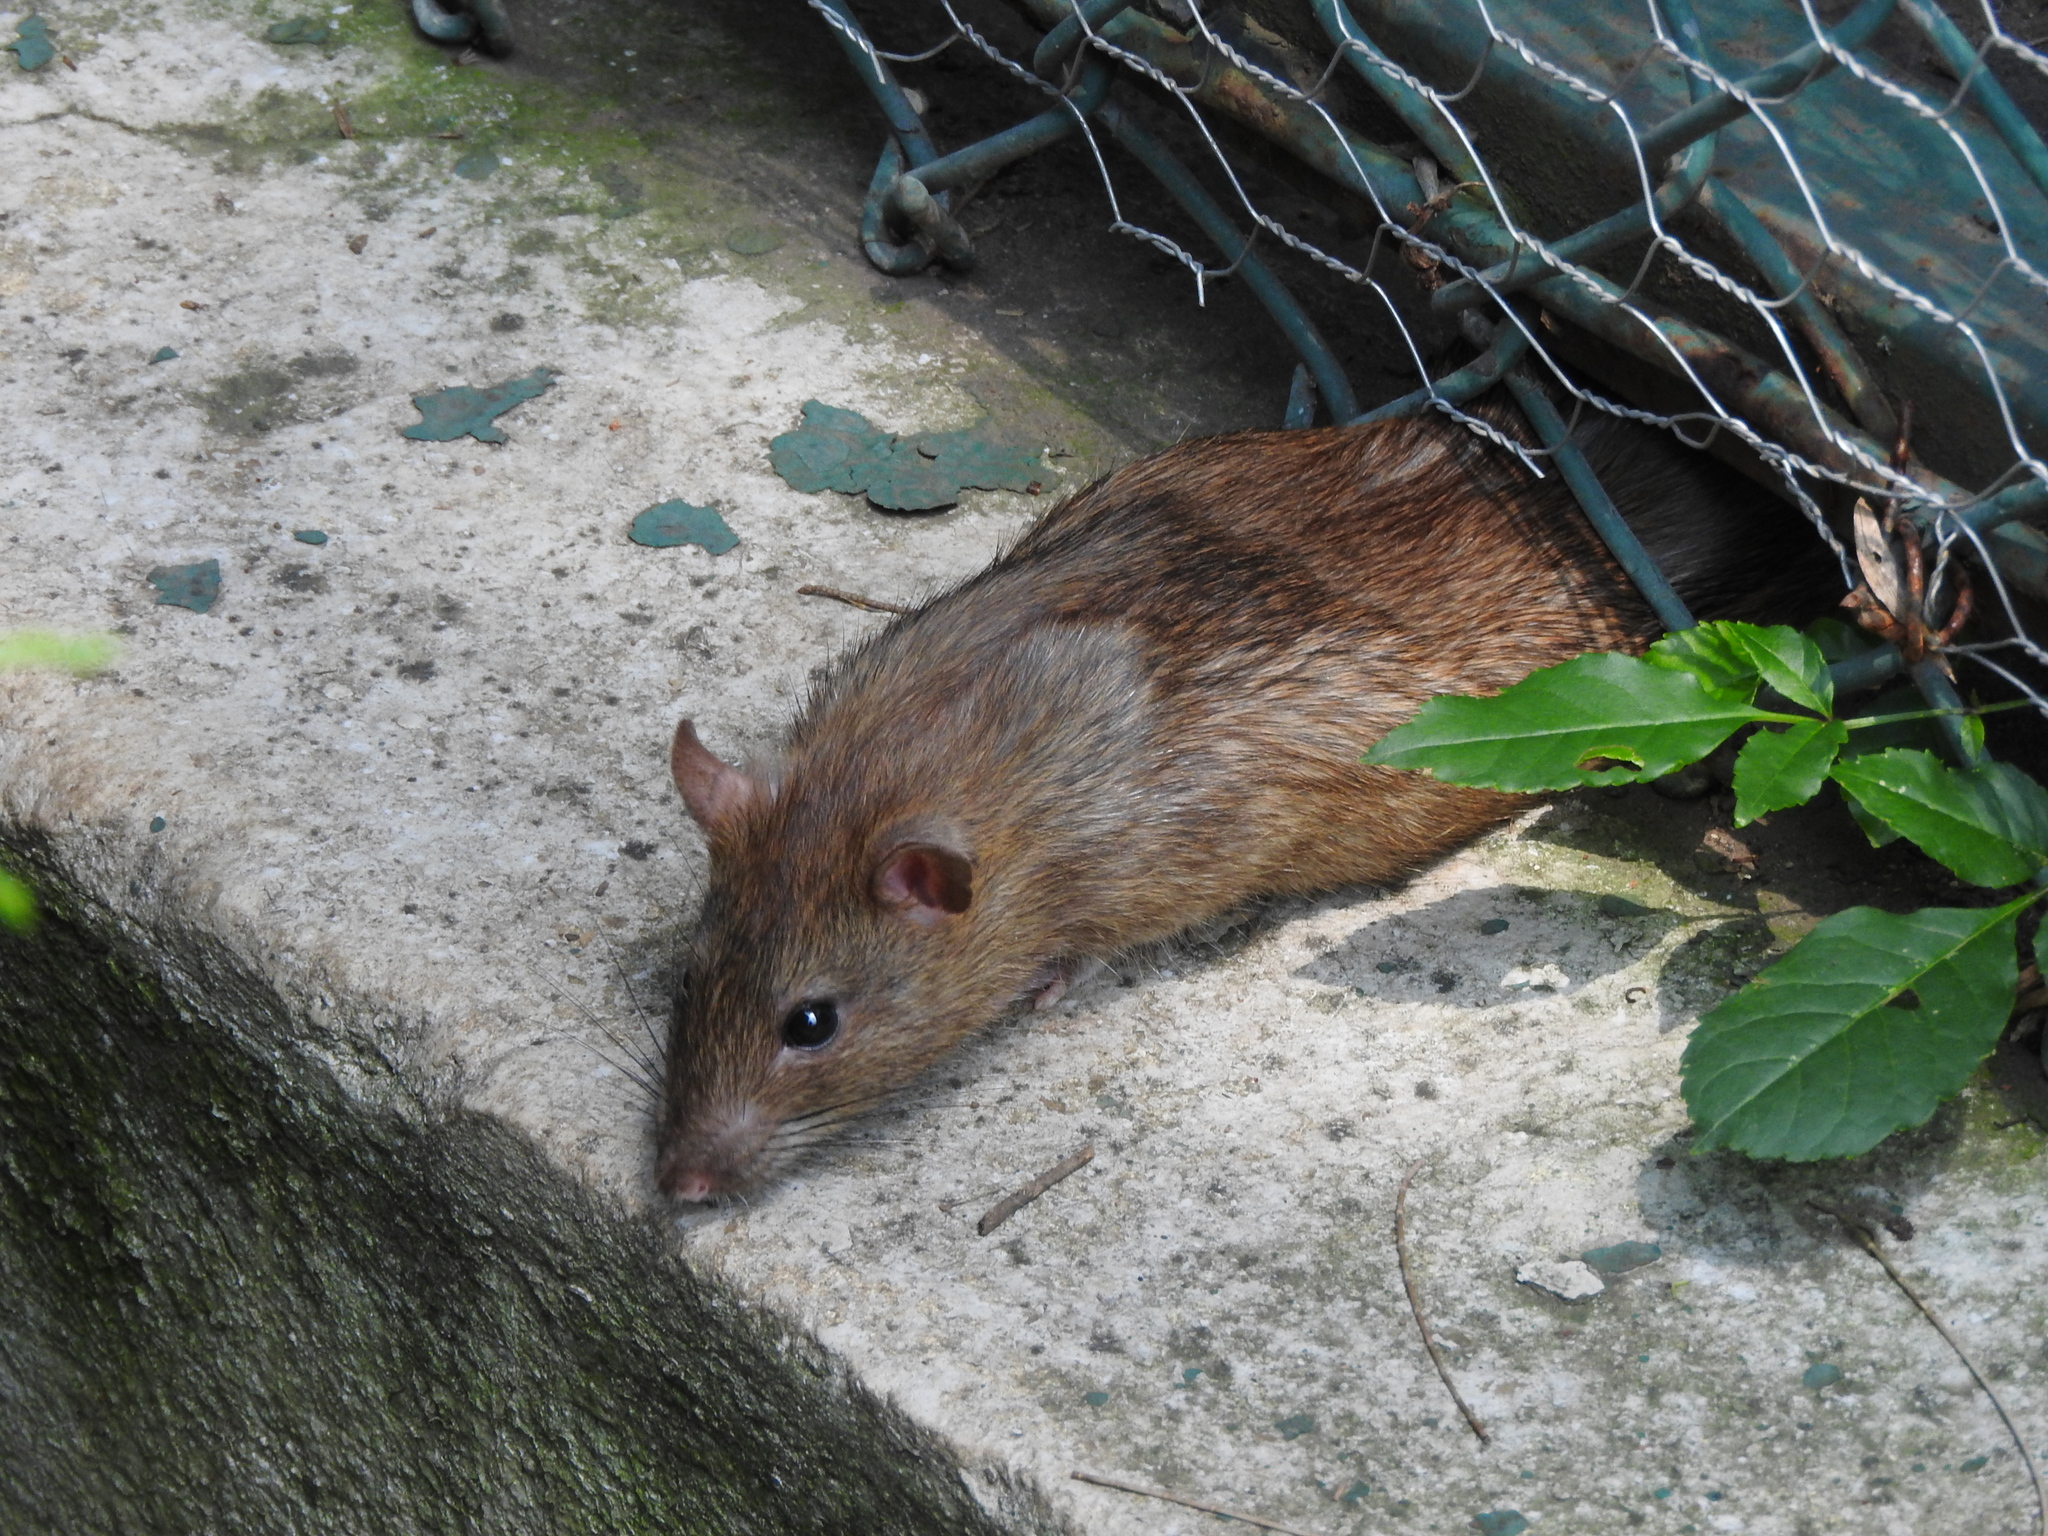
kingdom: Animalia
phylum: Chordata
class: Mammalia
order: Rodentia
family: Muridae
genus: Rattus
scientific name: Rattus norvegicus
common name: Brown rat
